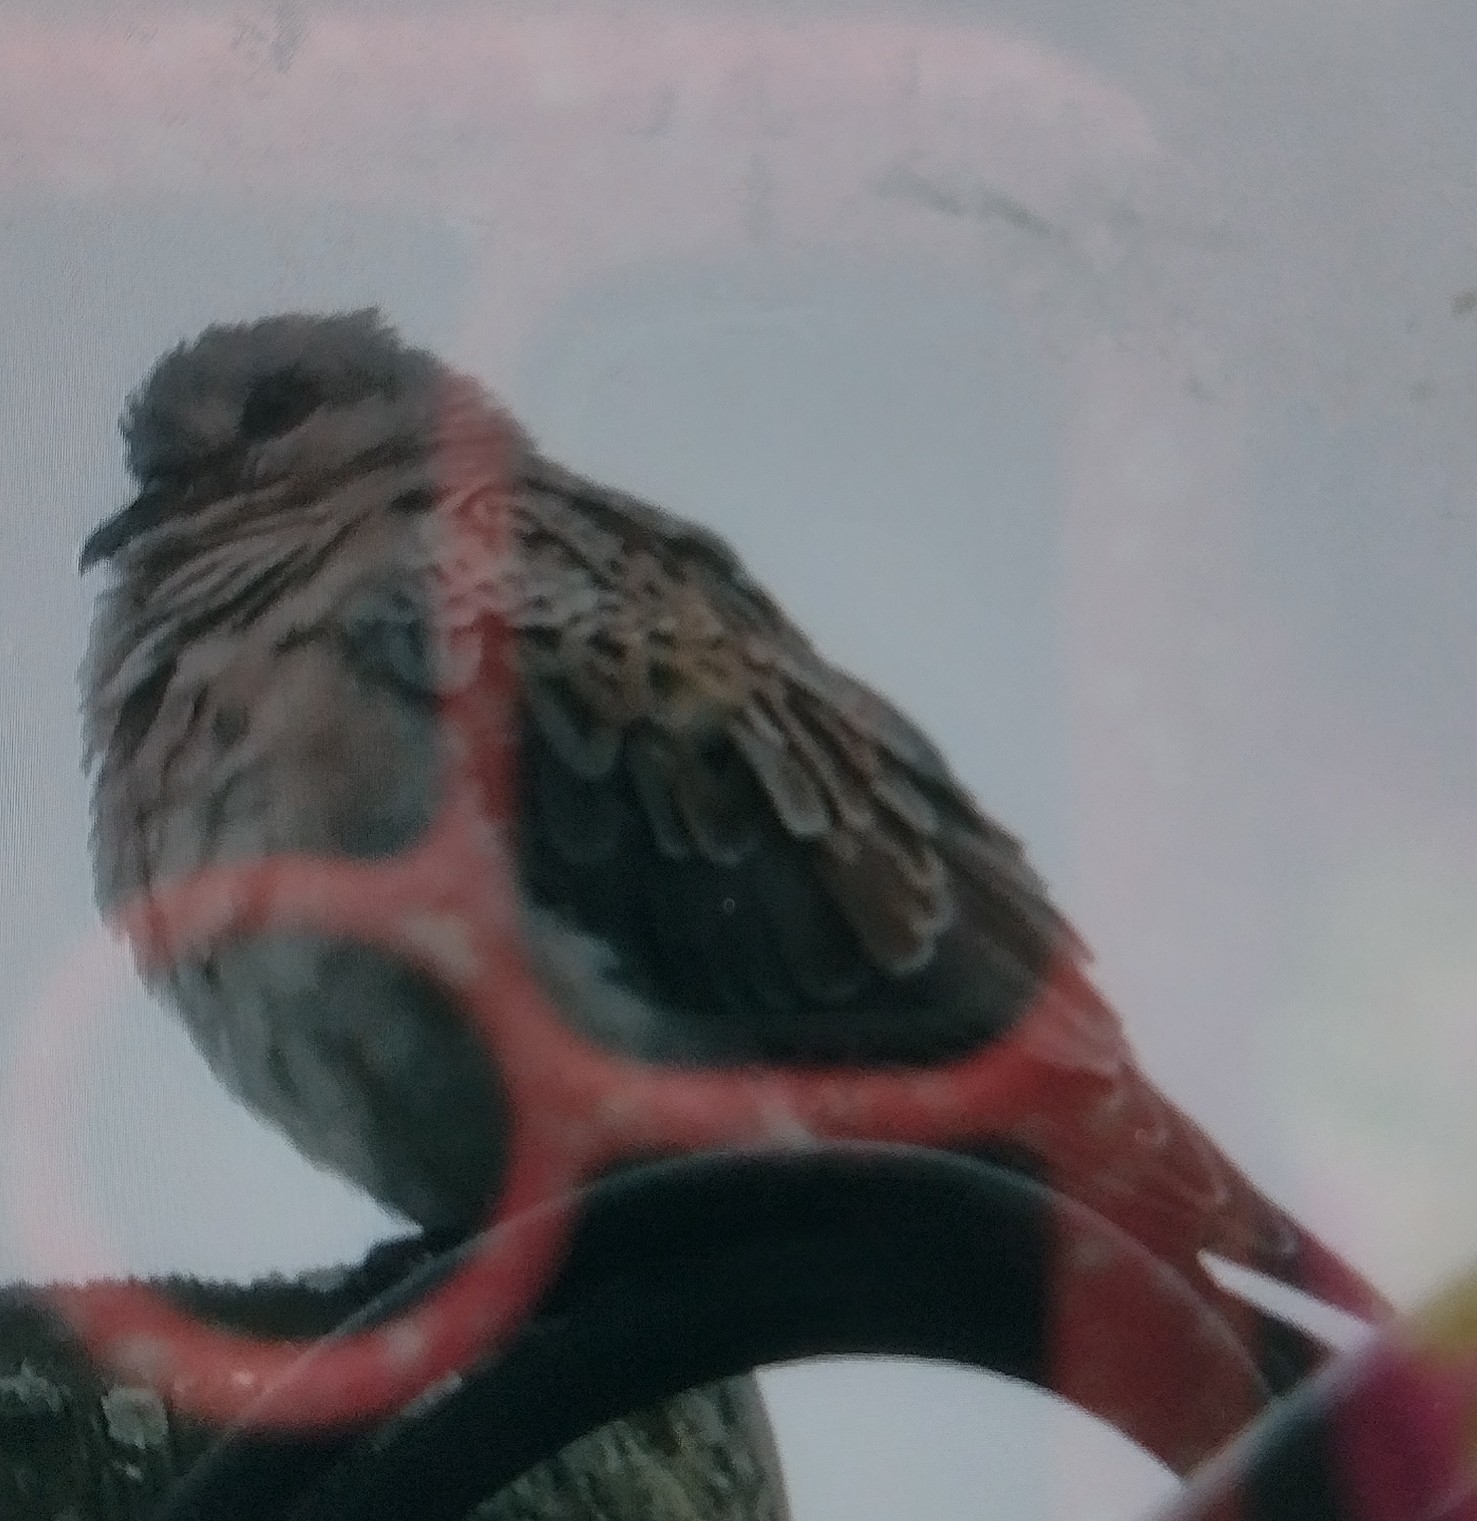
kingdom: Animalia
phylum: Chordata
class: Aves
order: Columbiformes
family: Columbidae
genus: Streptopelia
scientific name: Streptopelia turtur
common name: European turtle dove
